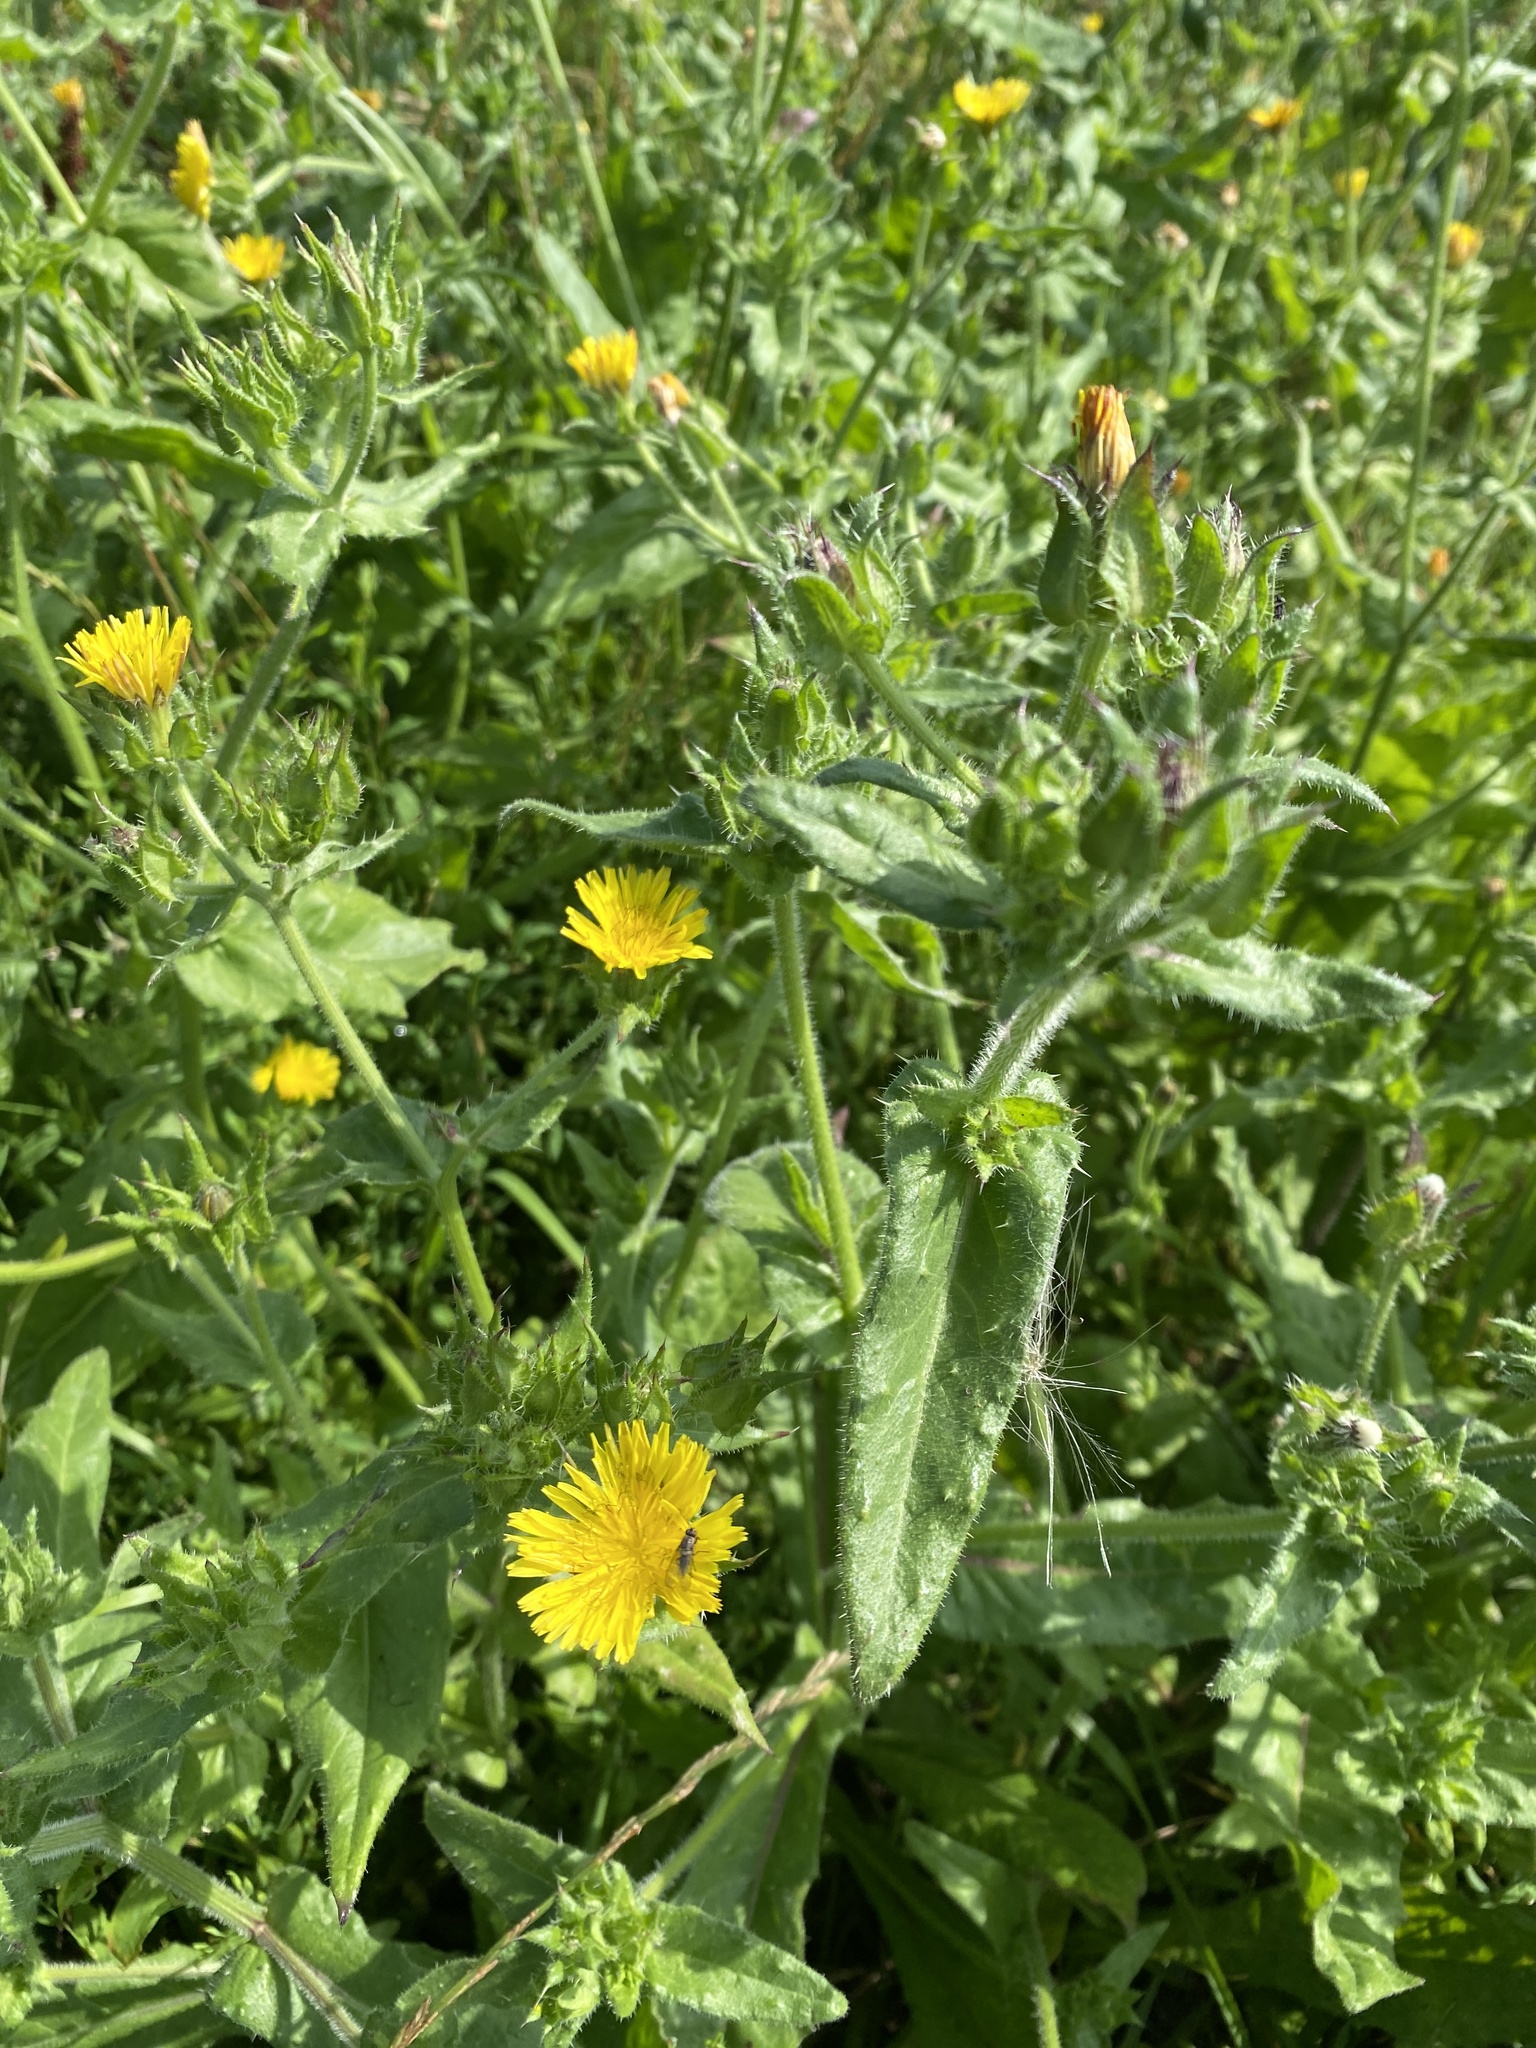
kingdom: Plantae
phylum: Tracheophyta
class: Magnoliopsida
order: Asterales
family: Asteraceae
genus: Helminthotheca
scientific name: Helminthotheca echioides
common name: Ox-tongue
